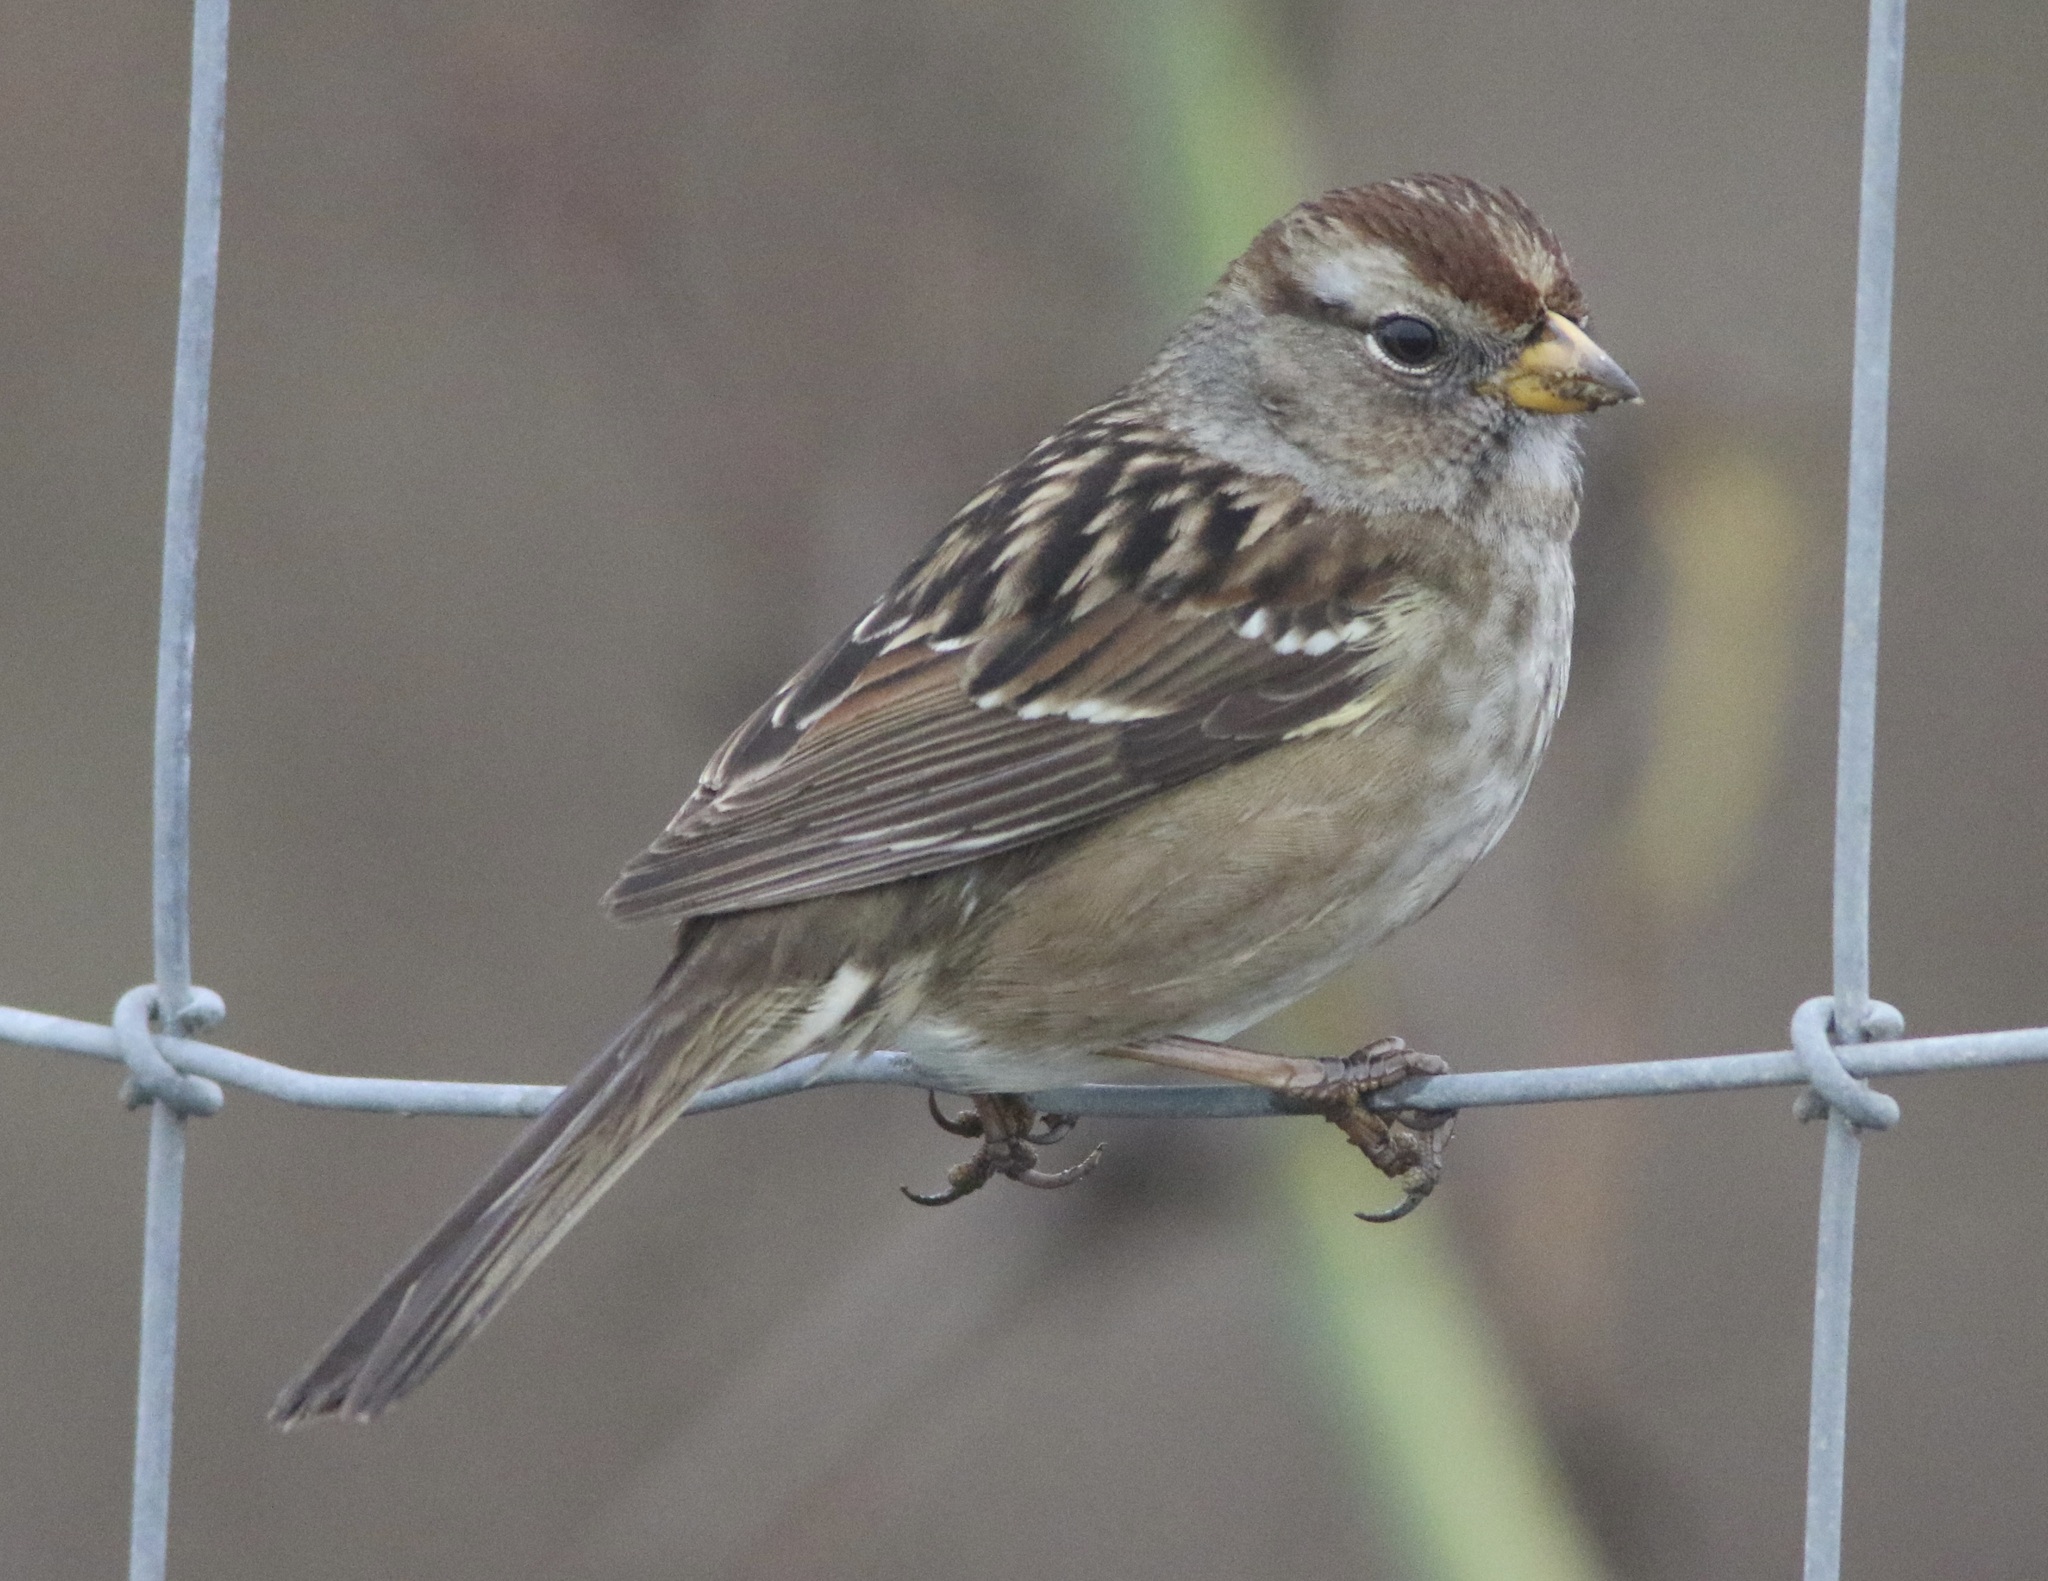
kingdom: Animalia
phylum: Chordata
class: Aves
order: Passeriformes
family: Passerellidae
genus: Zonotrichia
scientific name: Zonotrichia leucophrys
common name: White-crowned sparrow
